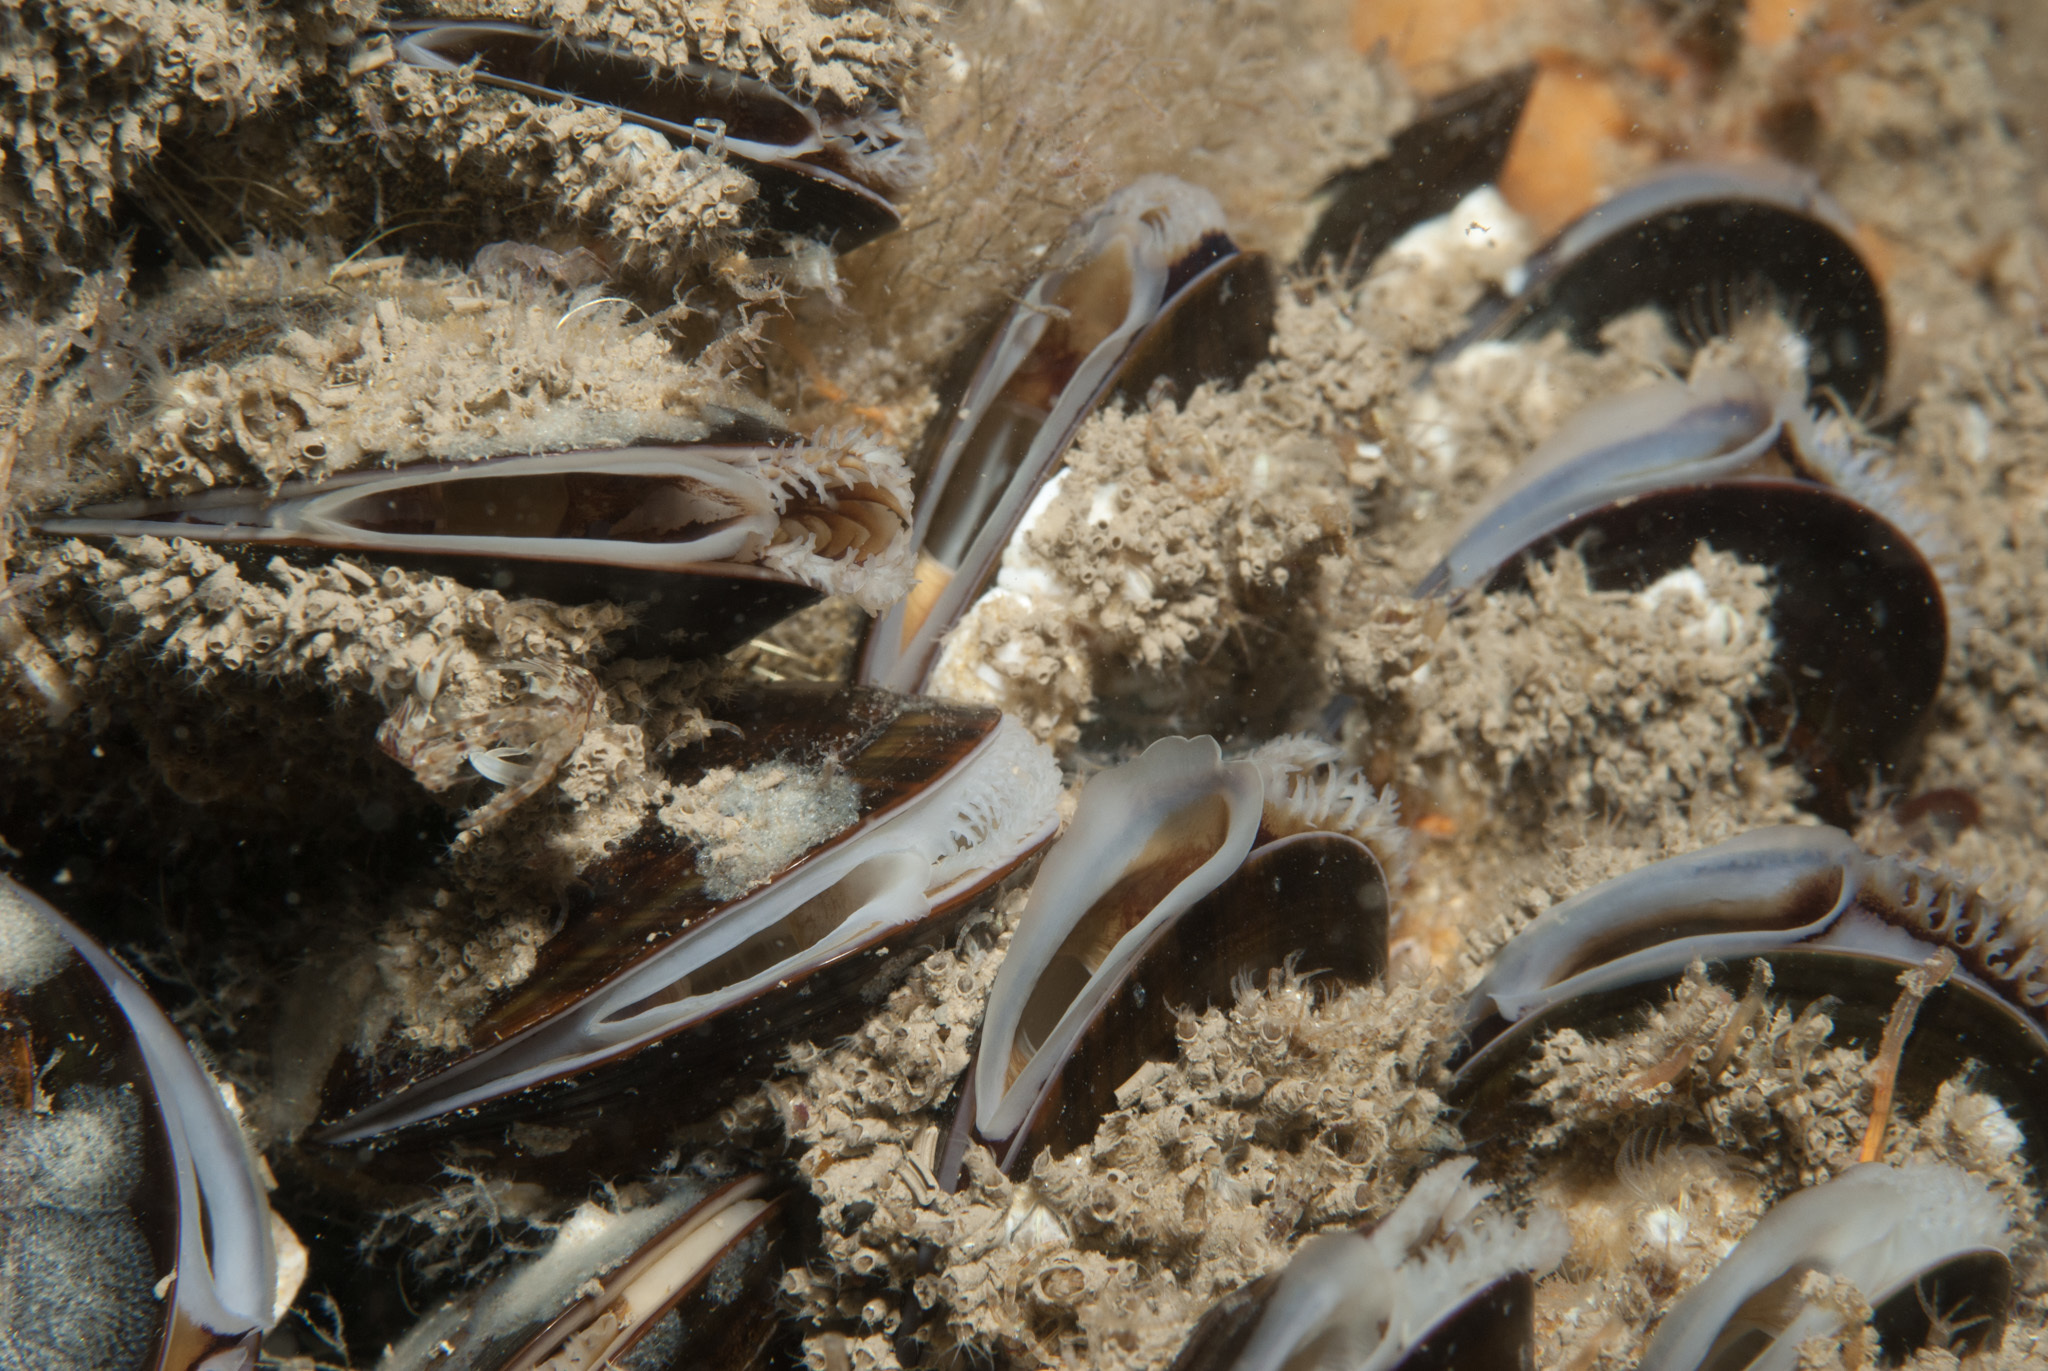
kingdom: Animalia
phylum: Mollusca
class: Bivalvia
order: Mytilida
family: Mytilidae
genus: Mytilus
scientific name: Mytilus edulis
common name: Blue mussel
